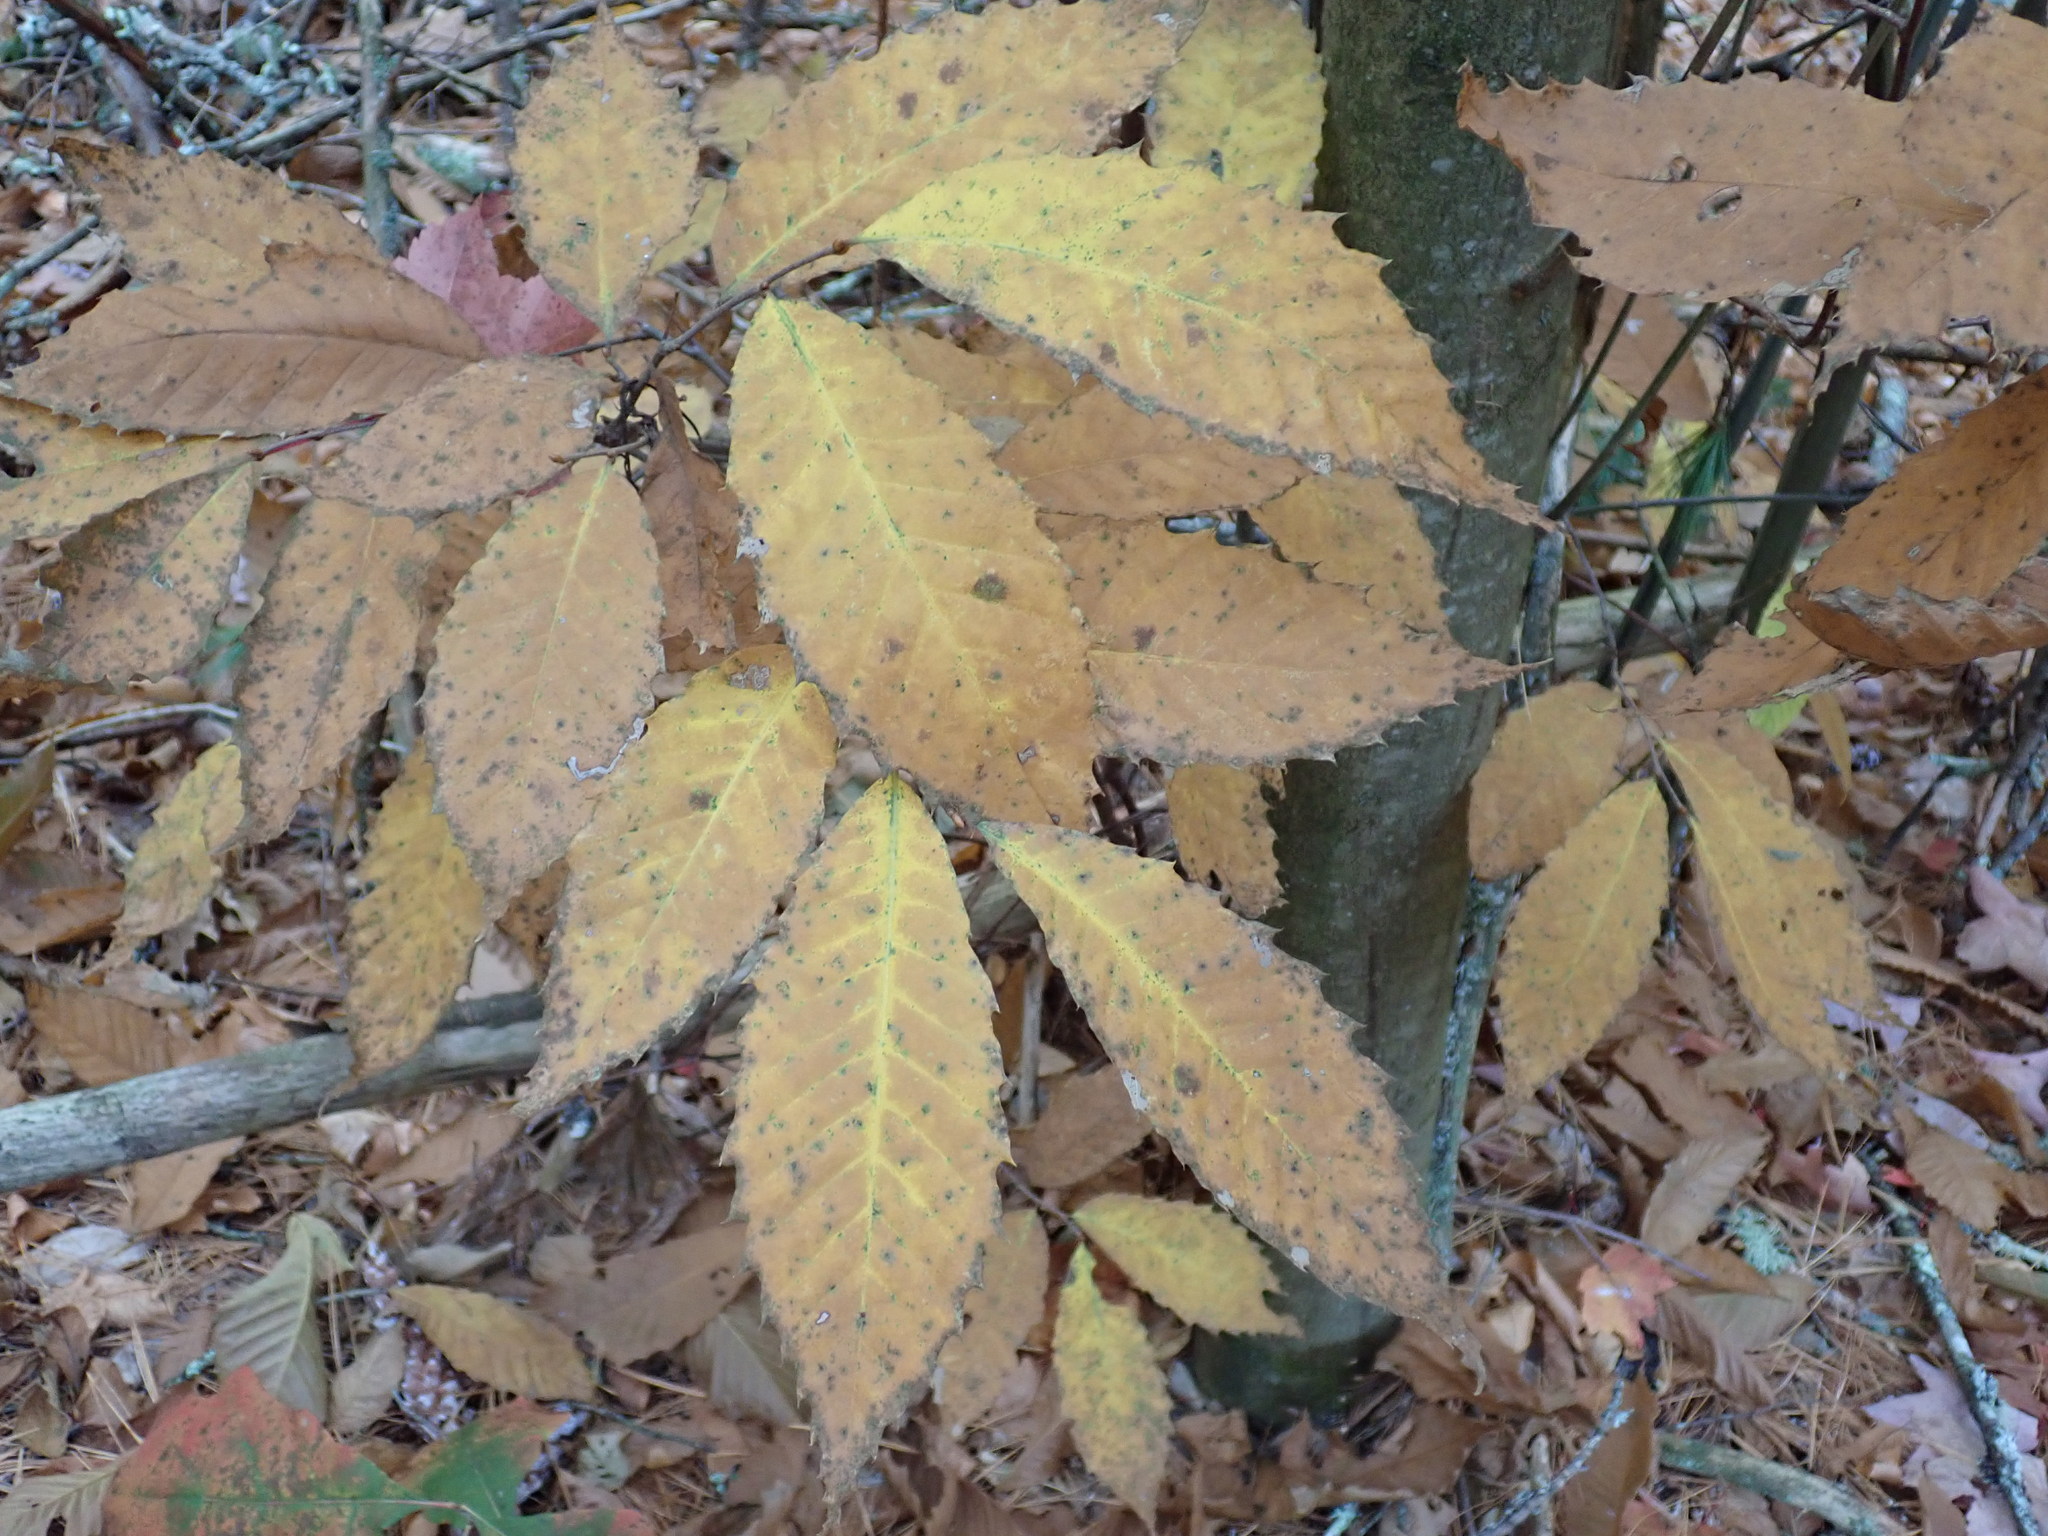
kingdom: Plantae
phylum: Tracheophyta
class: Magnoliopsida
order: Fagales
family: Fagaceae
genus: Castanea
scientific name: Castanea dentata
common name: American chestnut
